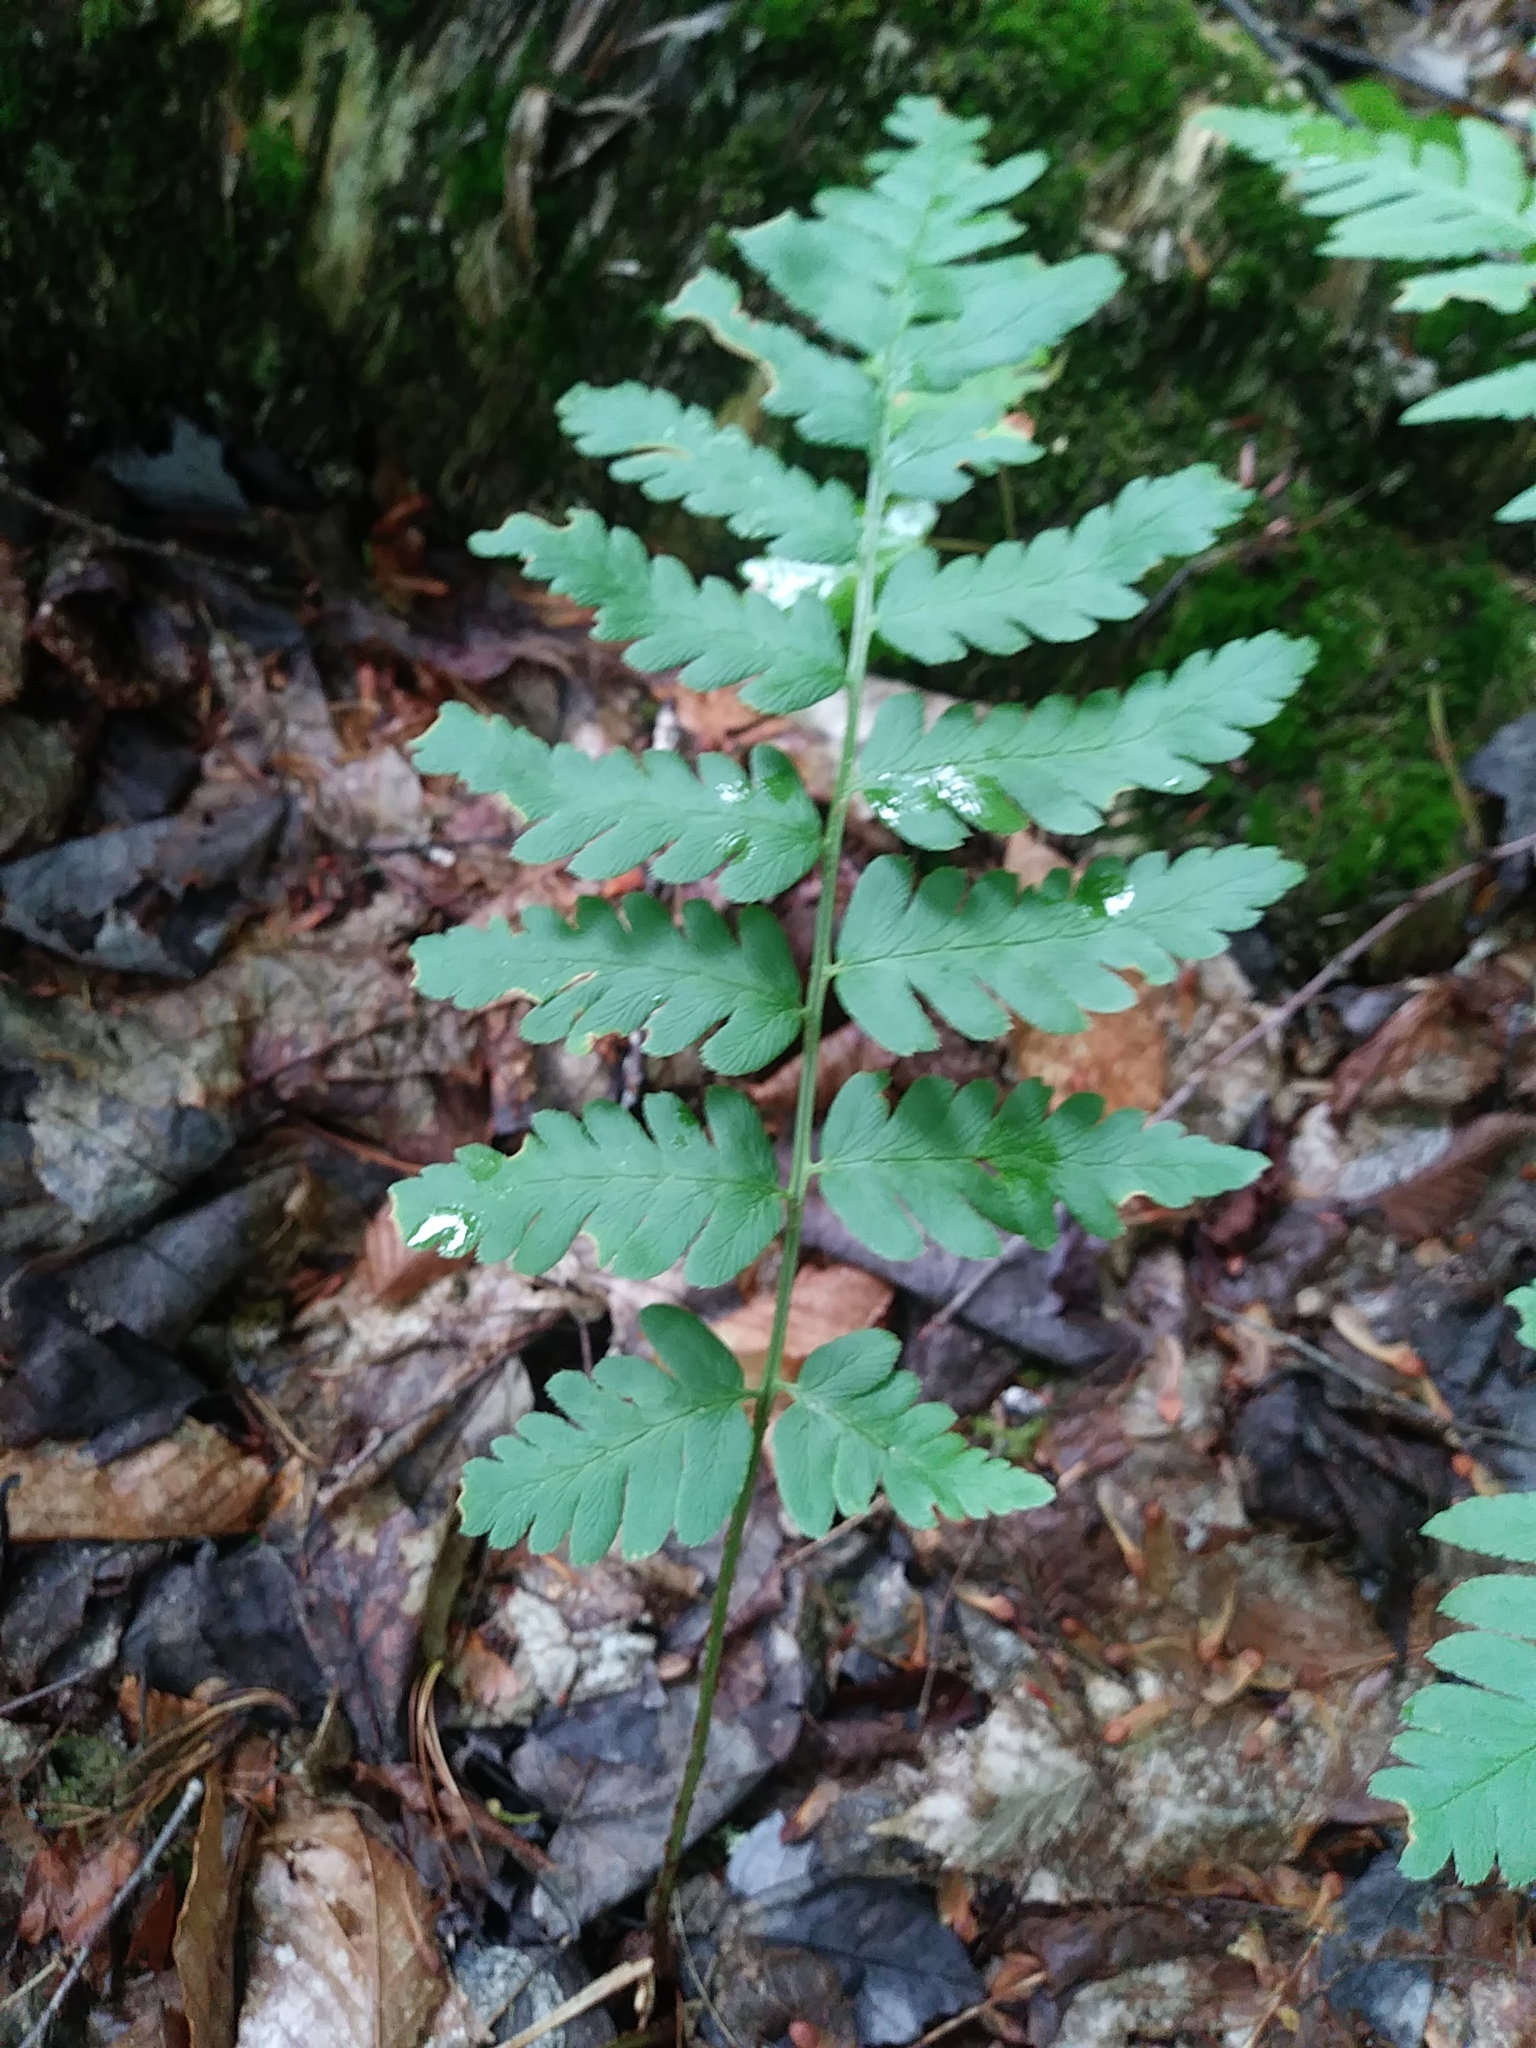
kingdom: Plantae
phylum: Tracheophyta
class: Polypodiopsida
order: Polypodiales
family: Dryopteridaceae
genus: Dryopteris
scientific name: Dryopteris cristata
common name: Crested wood fern
